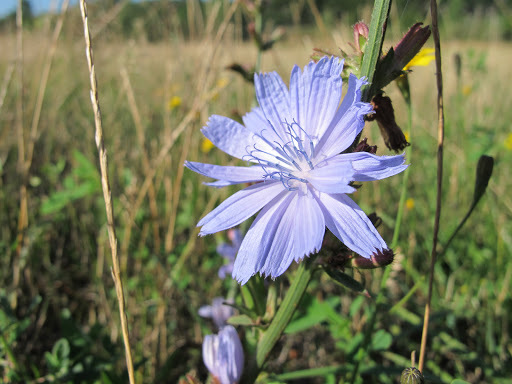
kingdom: Plantae
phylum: Tracheophyta
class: Magnoliopsida
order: Asterales
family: Asteraceae
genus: Cichorium
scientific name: Cichorium intybus
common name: Chicory
